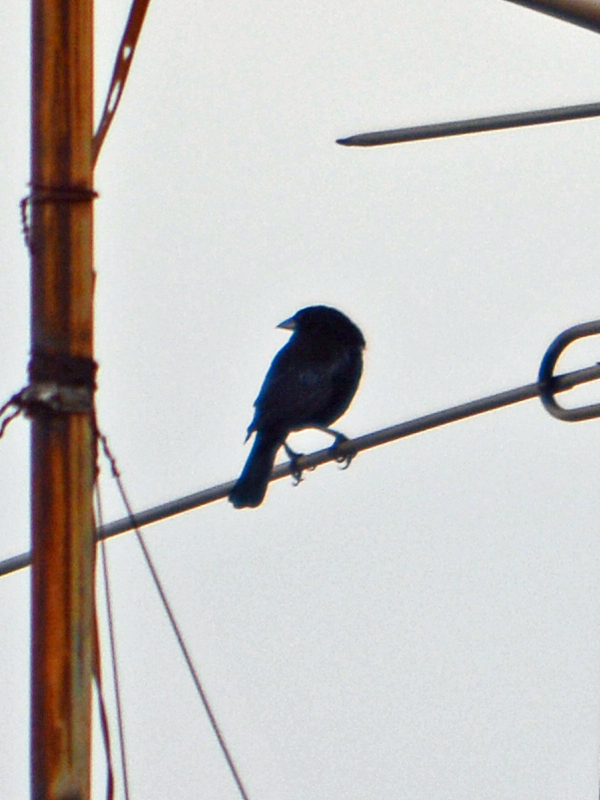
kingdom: Animalia
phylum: Chordata
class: Aves
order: Passeriformes
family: Icteridae
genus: Molothrus
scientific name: Molothrus aeneus
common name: Bronzed cowbird
